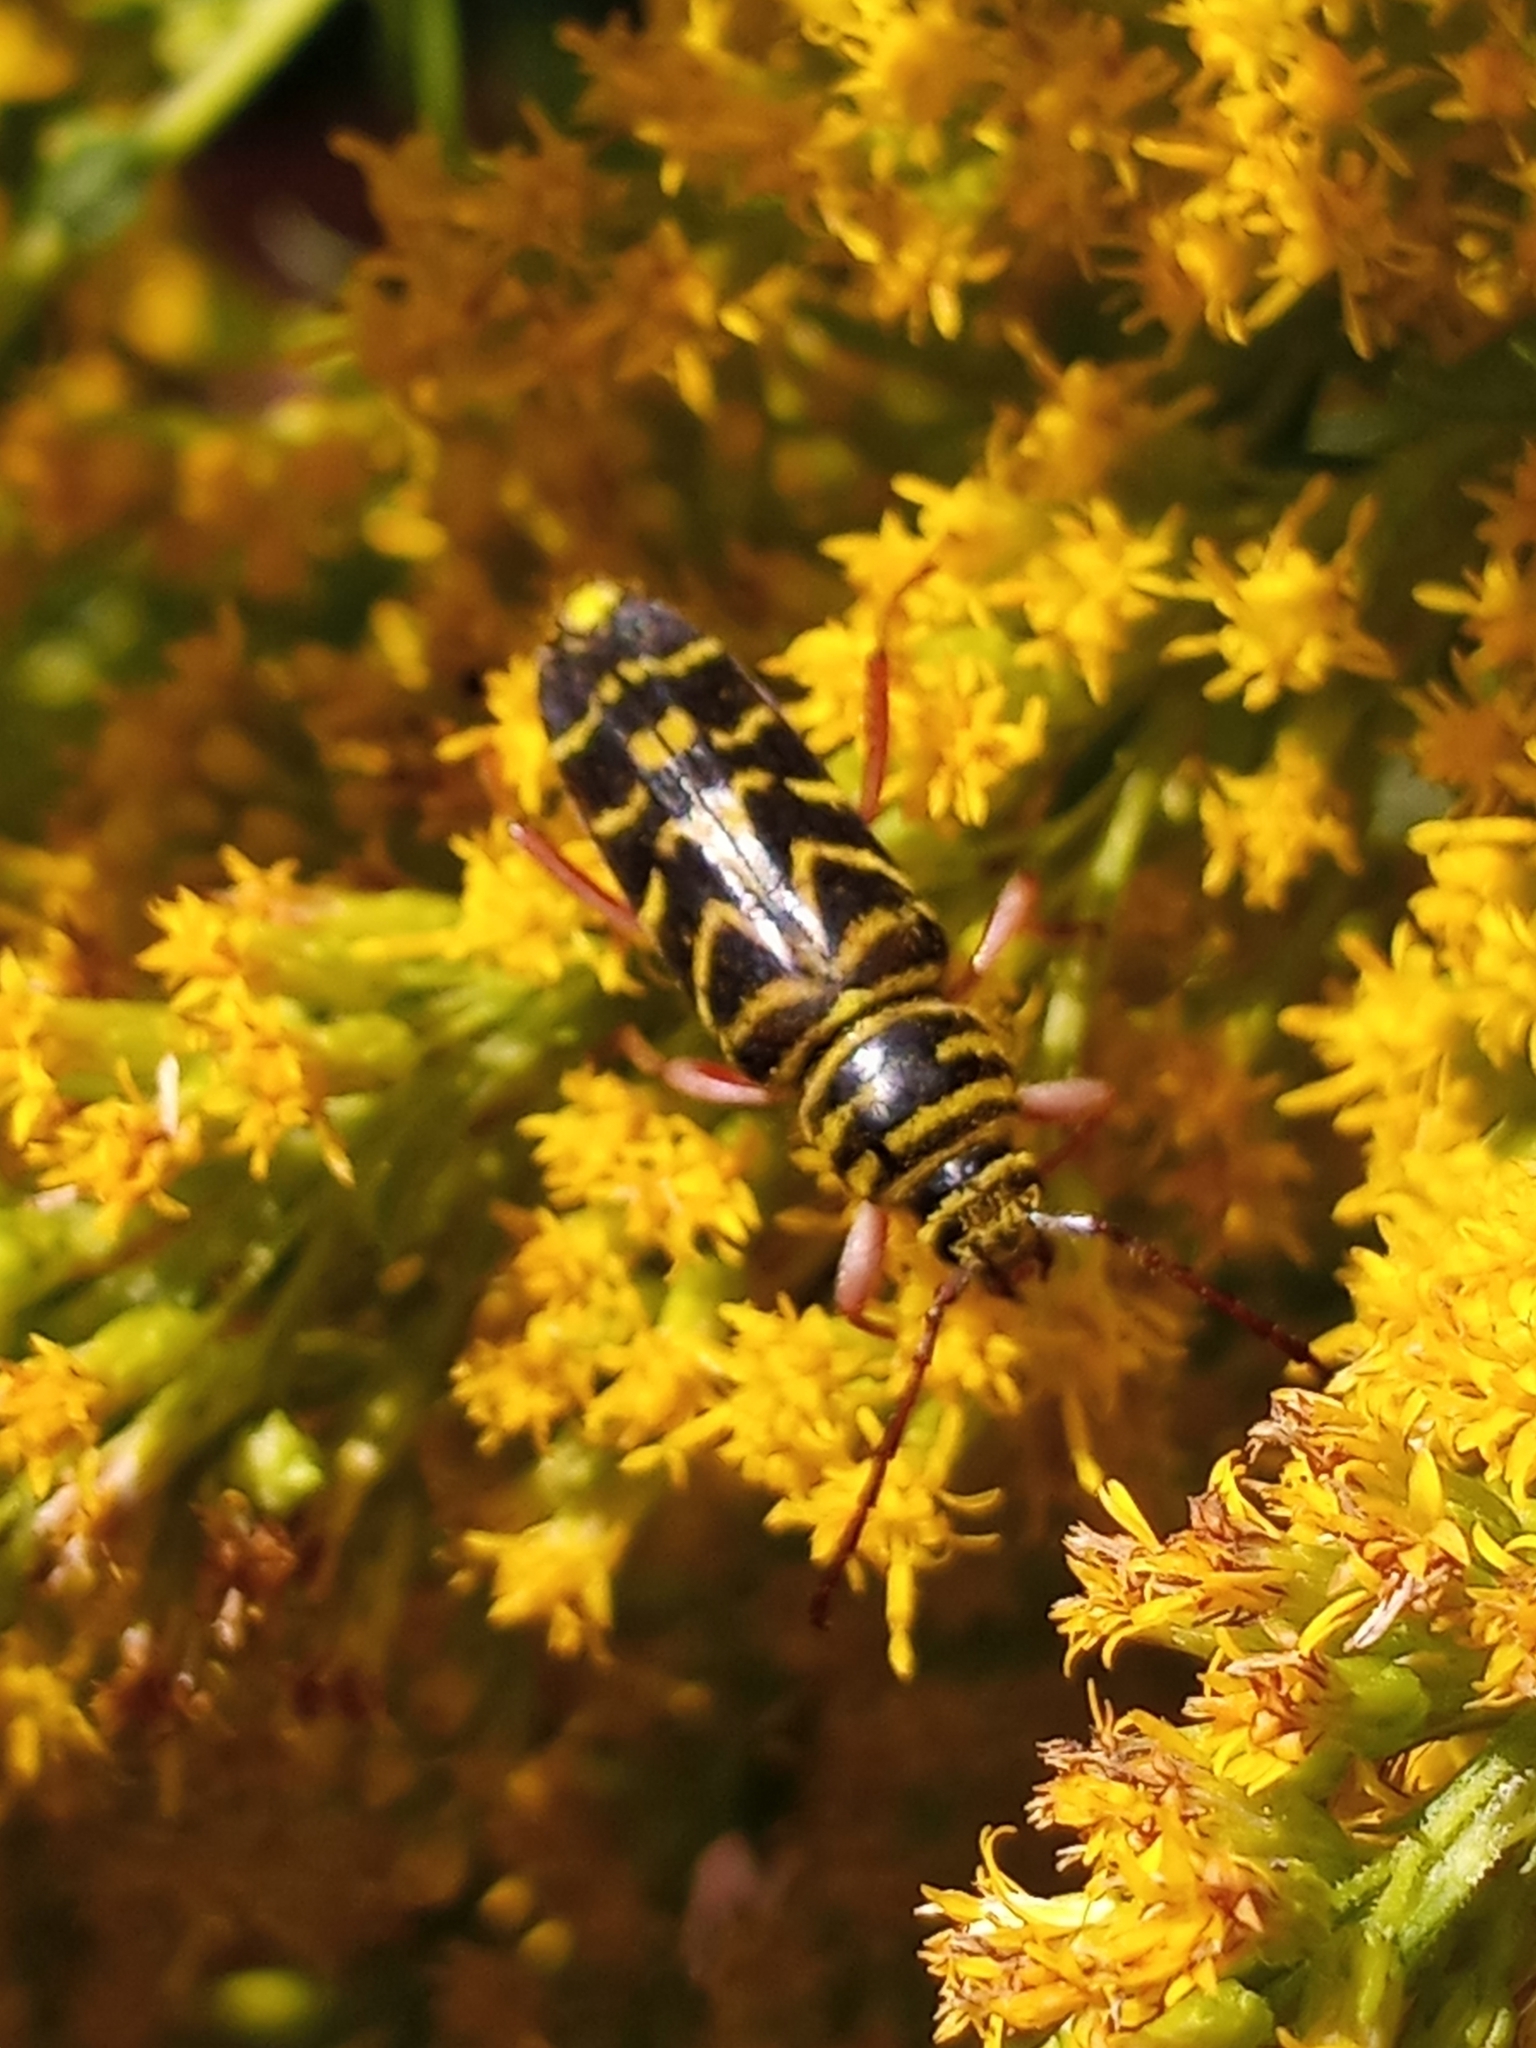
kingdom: Animalia
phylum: Arthropoda
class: Insecta
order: Coleoptera
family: Cerambycidae
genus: Megacyllene
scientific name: Megacyllene robiniae
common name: Locust borer
